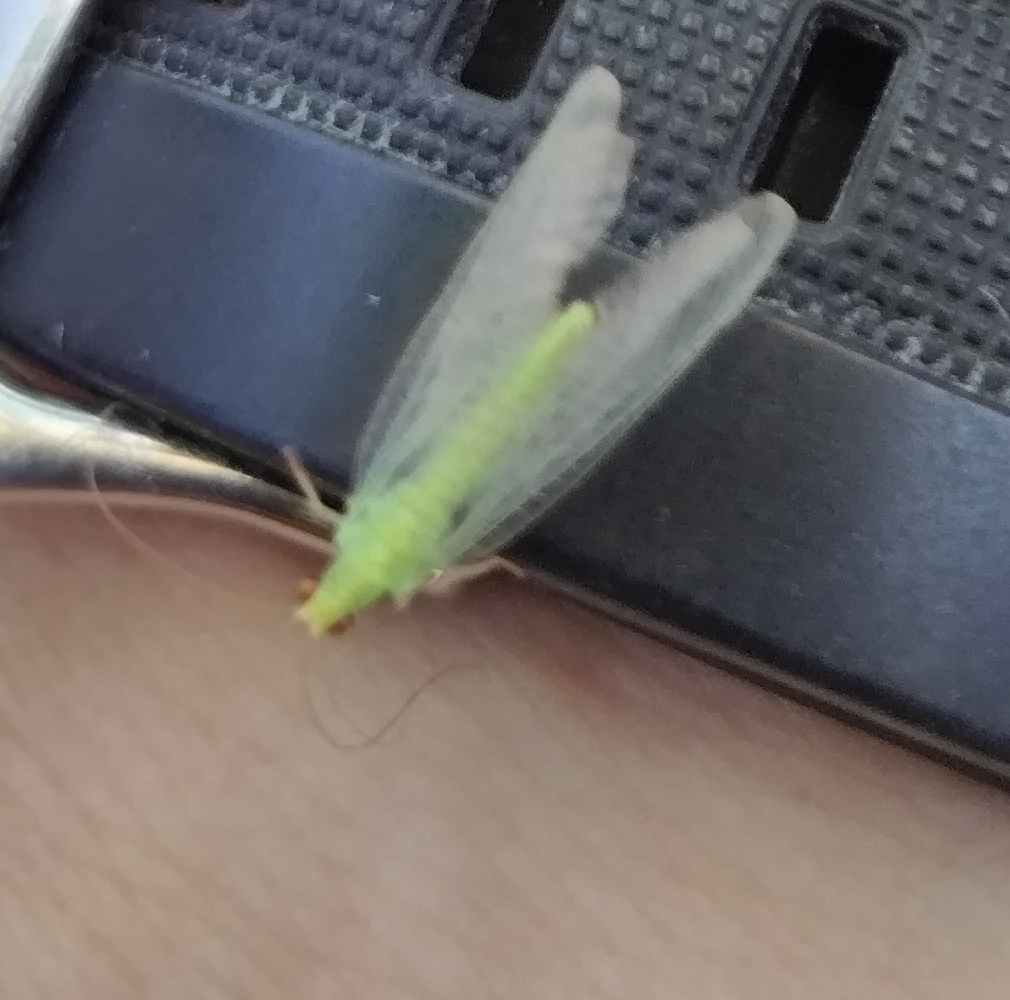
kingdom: Animalia
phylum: Arthropoda
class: Insecta
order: Neuroptera
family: Chrysopidae
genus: Pseudomallada
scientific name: Pseudomallada flavifrons
